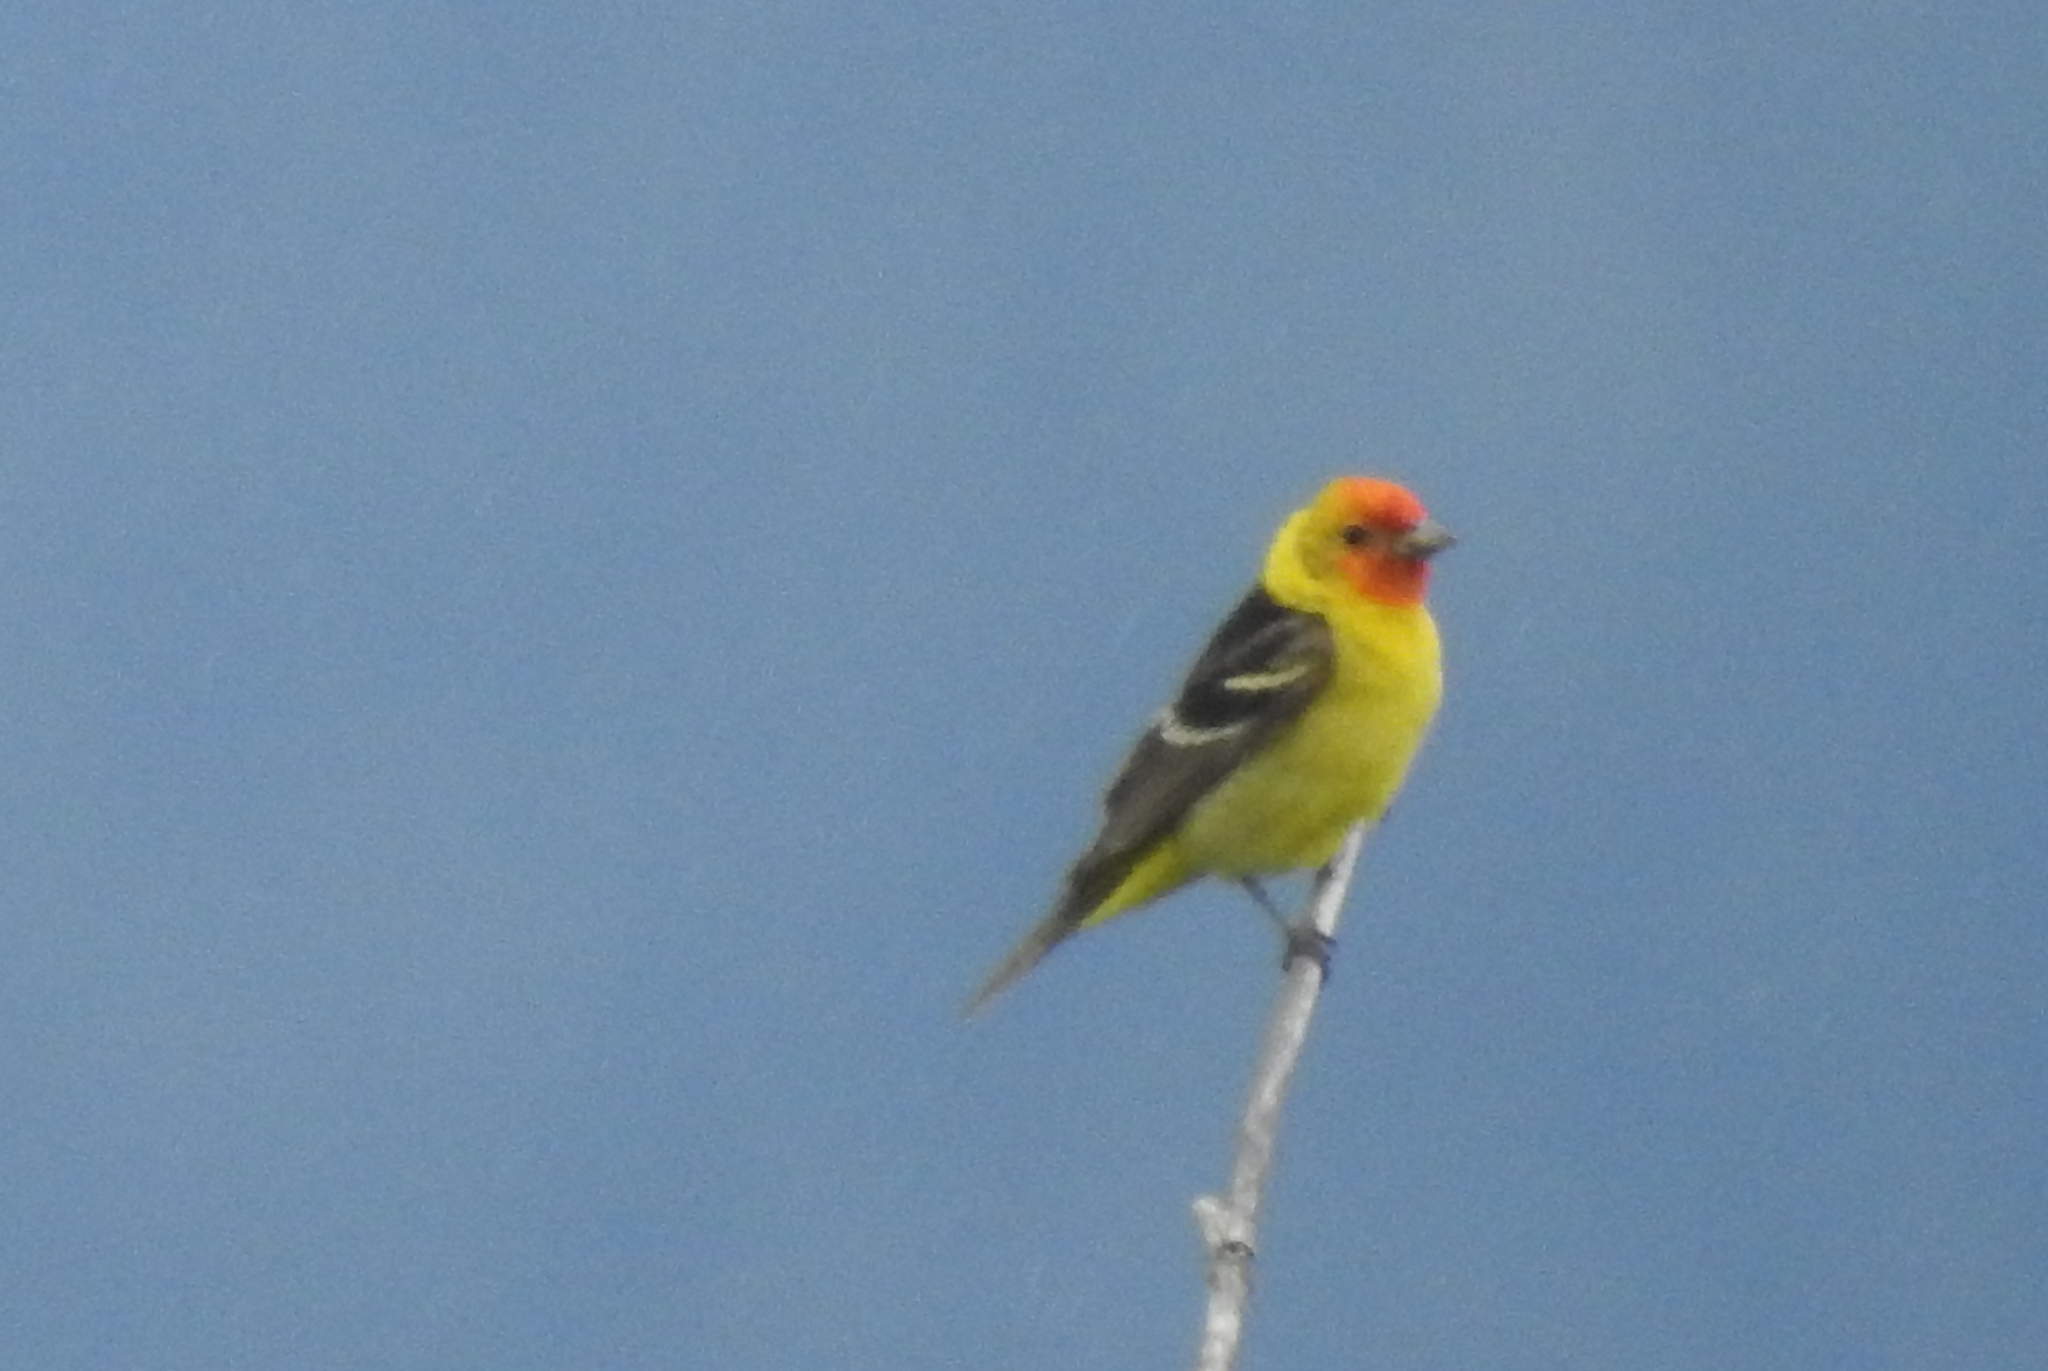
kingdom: Animalia
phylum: Chordata
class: Aves
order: Passeriformes
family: Cardinalidae
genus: Piranga
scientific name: Piranga ludoviciana
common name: Western tanager
